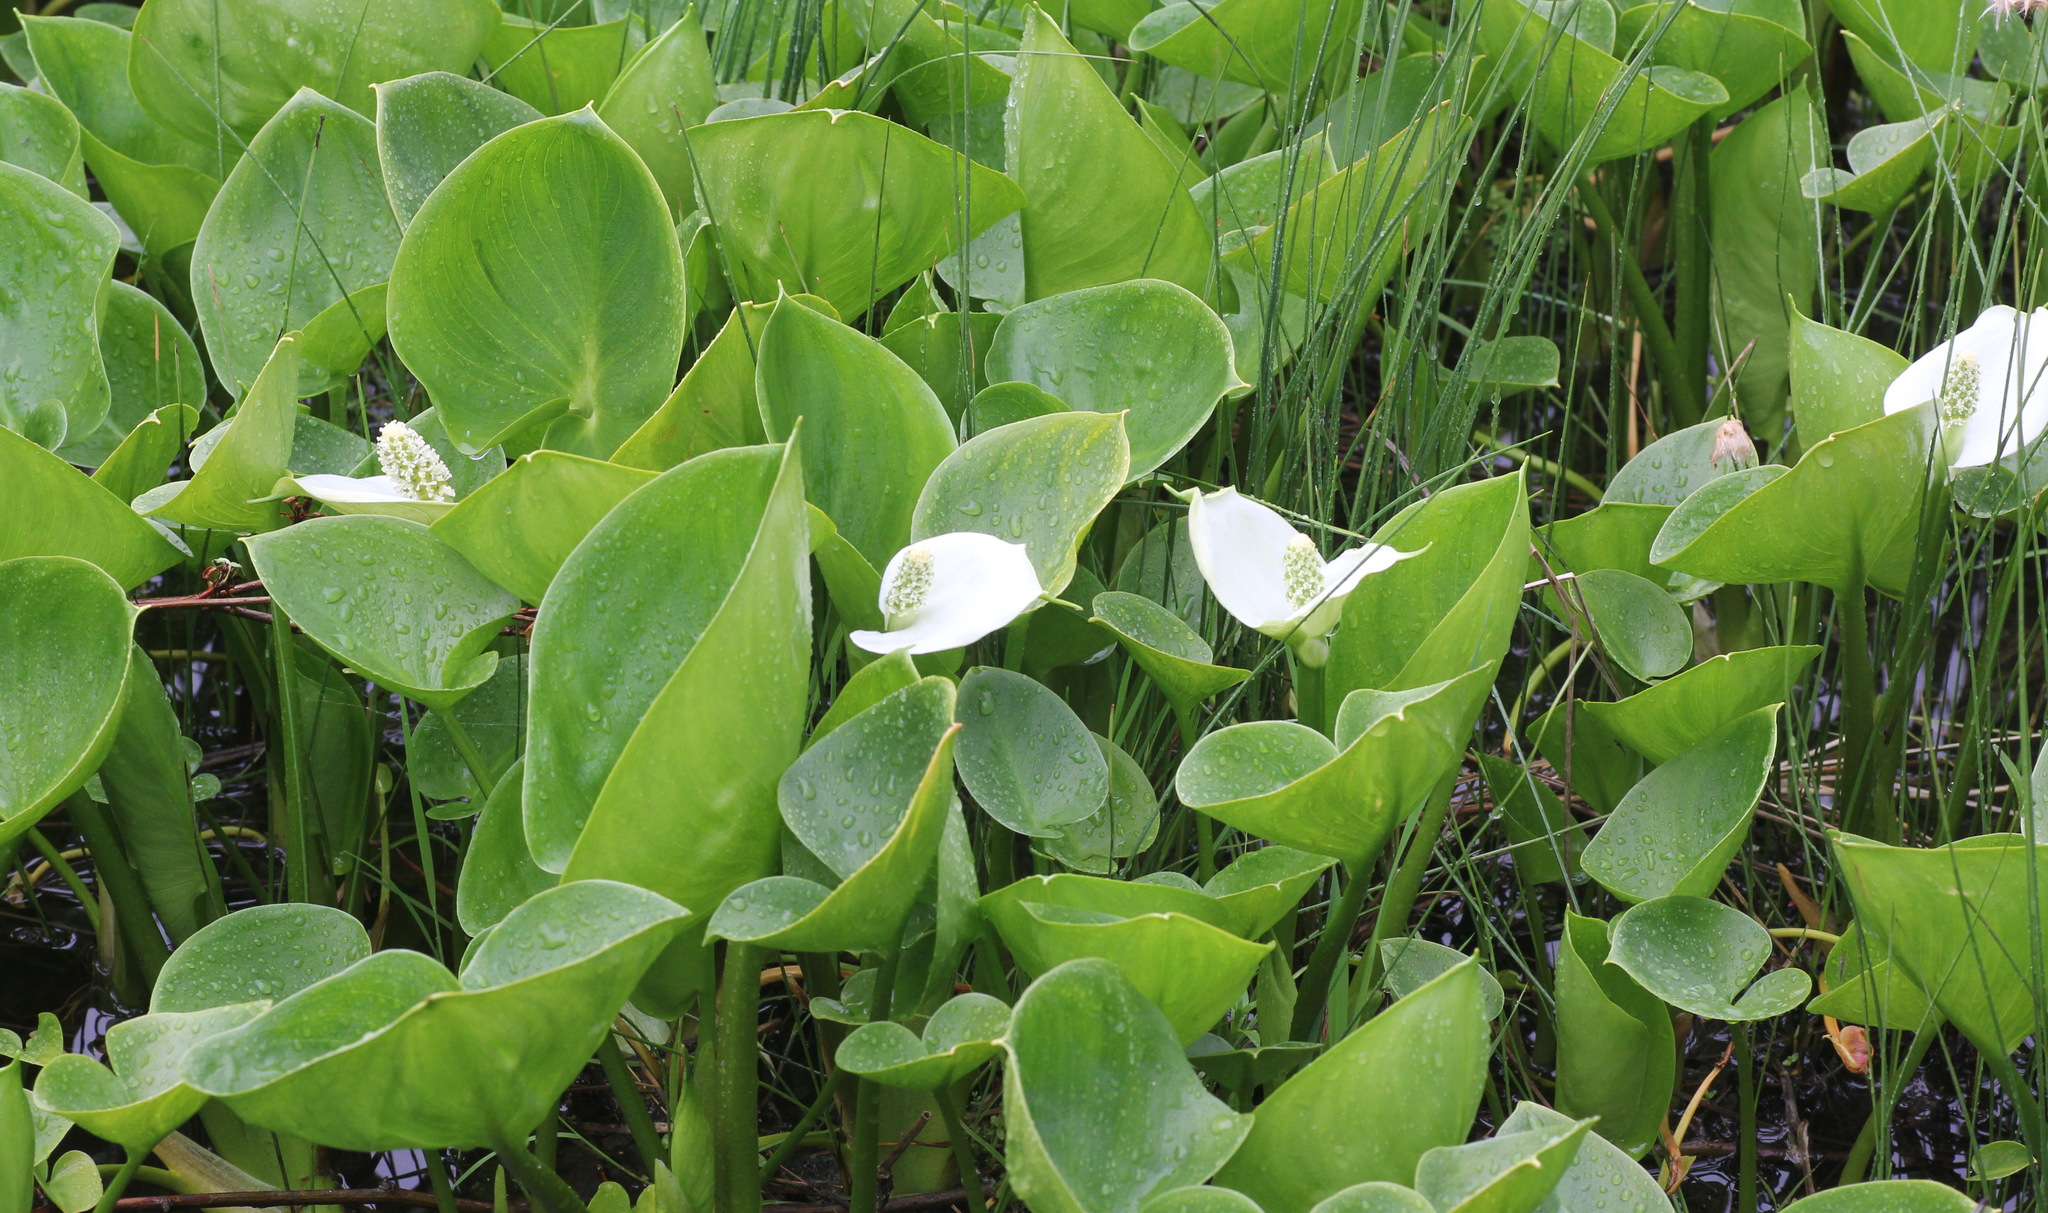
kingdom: Plantae
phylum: Tracheophyta
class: Liliopsida
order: Alismatales
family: Araceae
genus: Calla
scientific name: Calla palustris
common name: Bog arum
